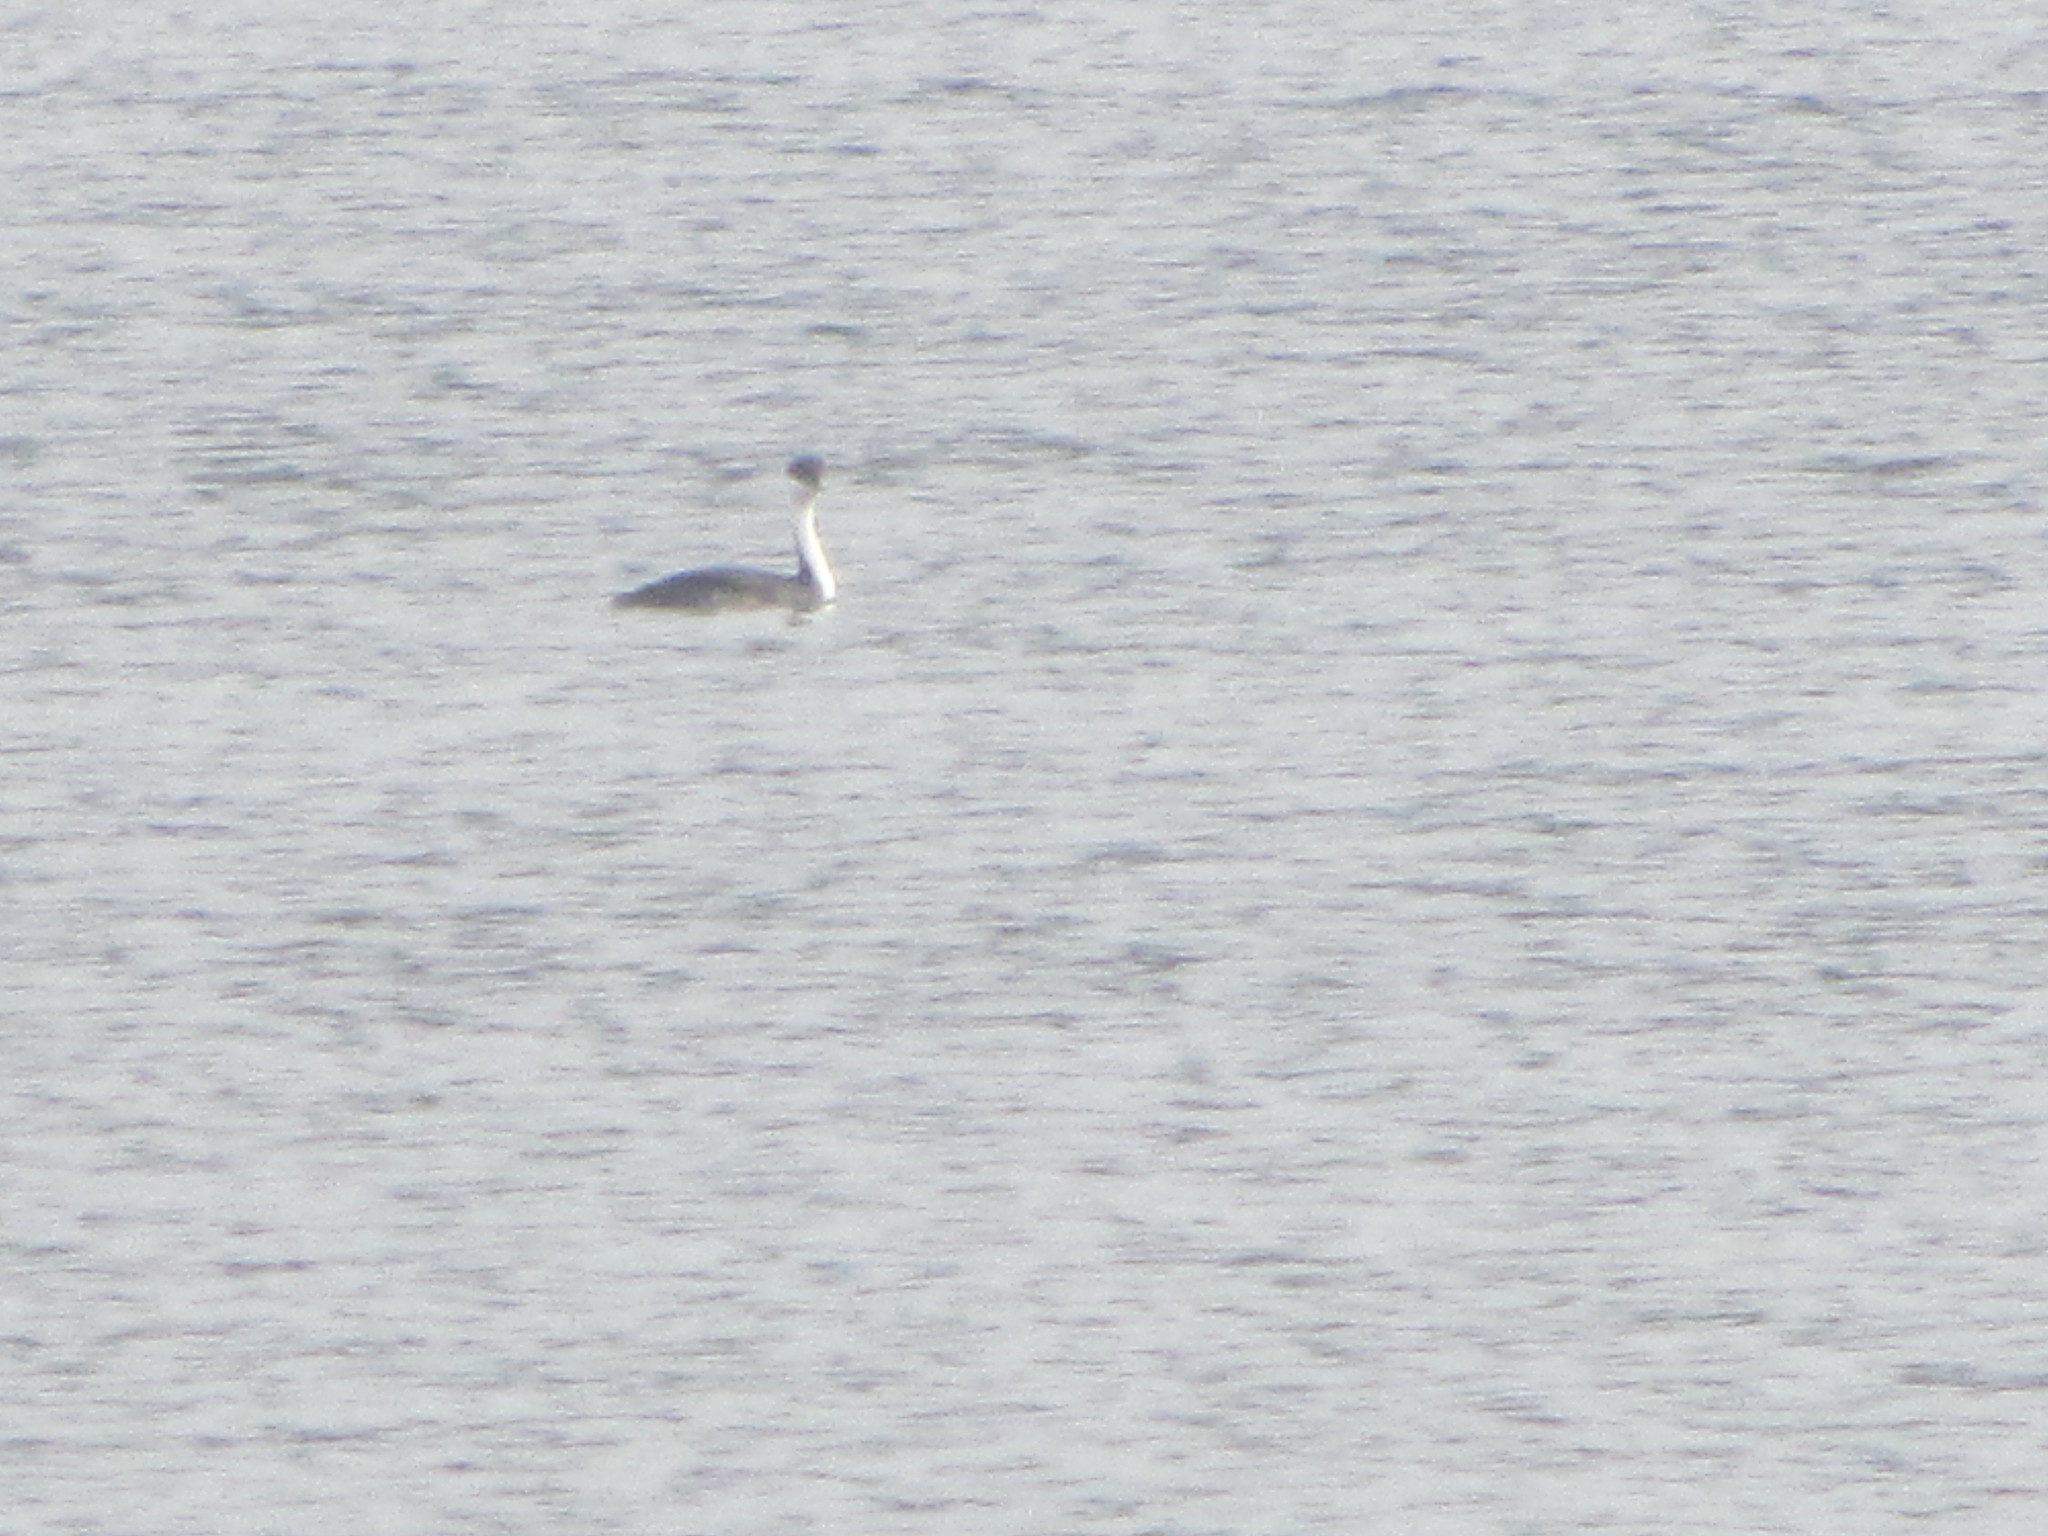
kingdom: Animalia
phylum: Chordata
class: Aves
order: Podicipediformes
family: Podicipedidae
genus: Aechmophorus
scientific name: Aechmophorus occidentalis
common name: Western grebe
